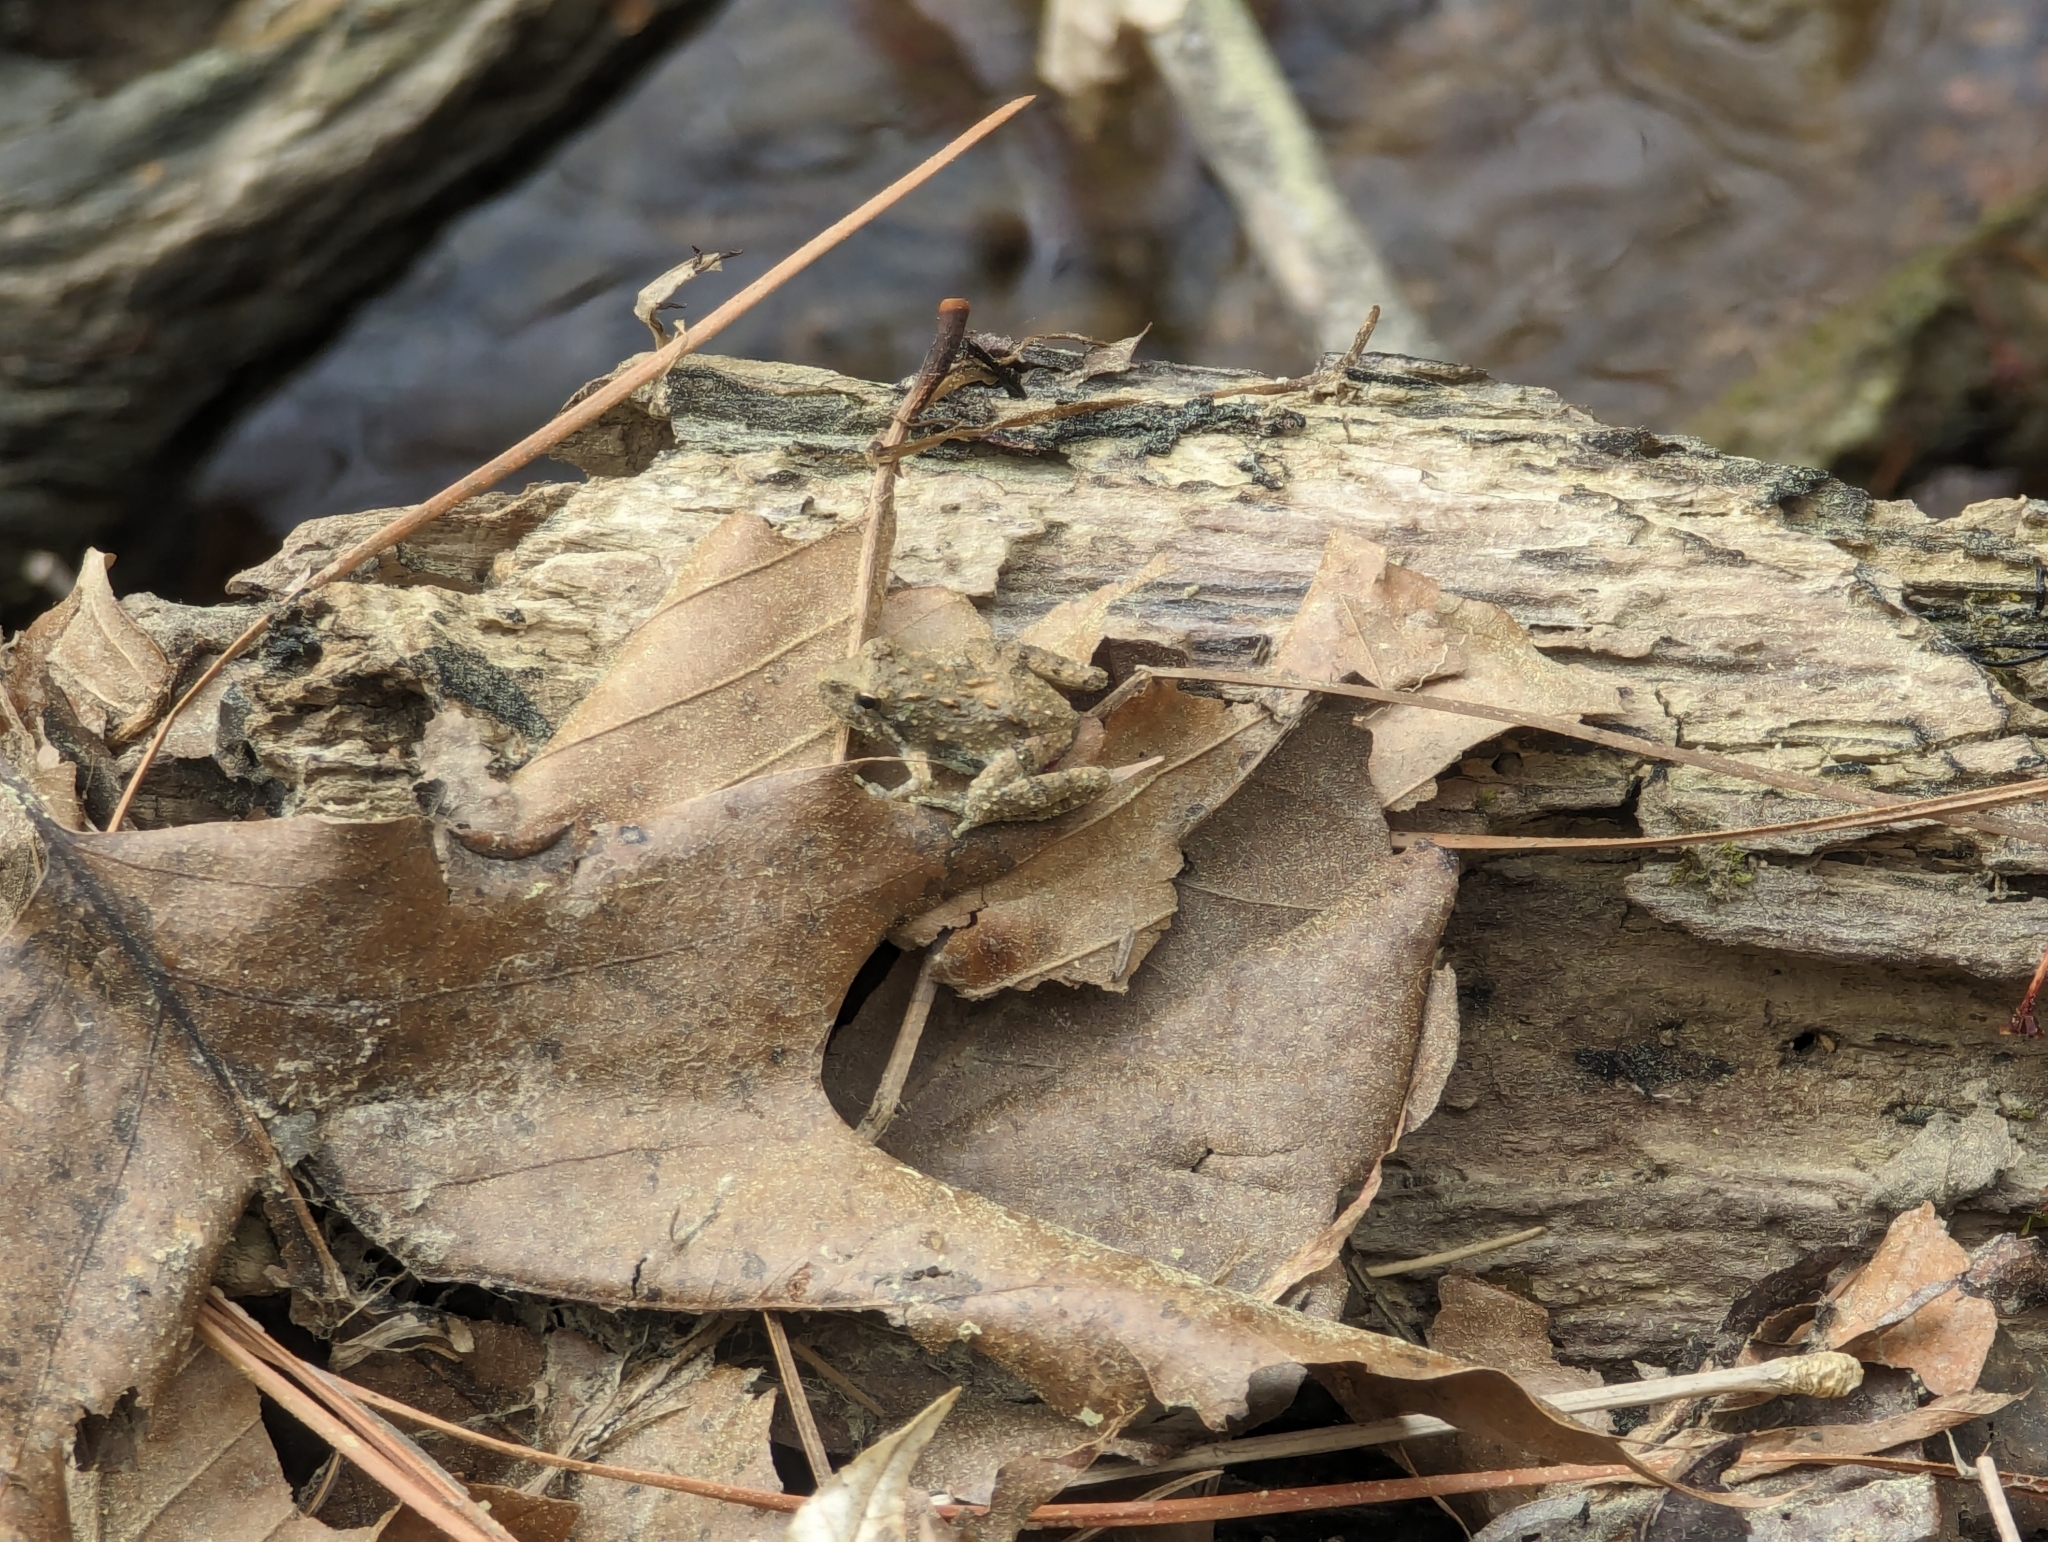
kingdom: Animalia
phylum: Chordata
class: Amphibia
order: Anura
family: Hylidae
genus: Acris
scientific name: Acris crepitans
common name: Northern cricket frog
